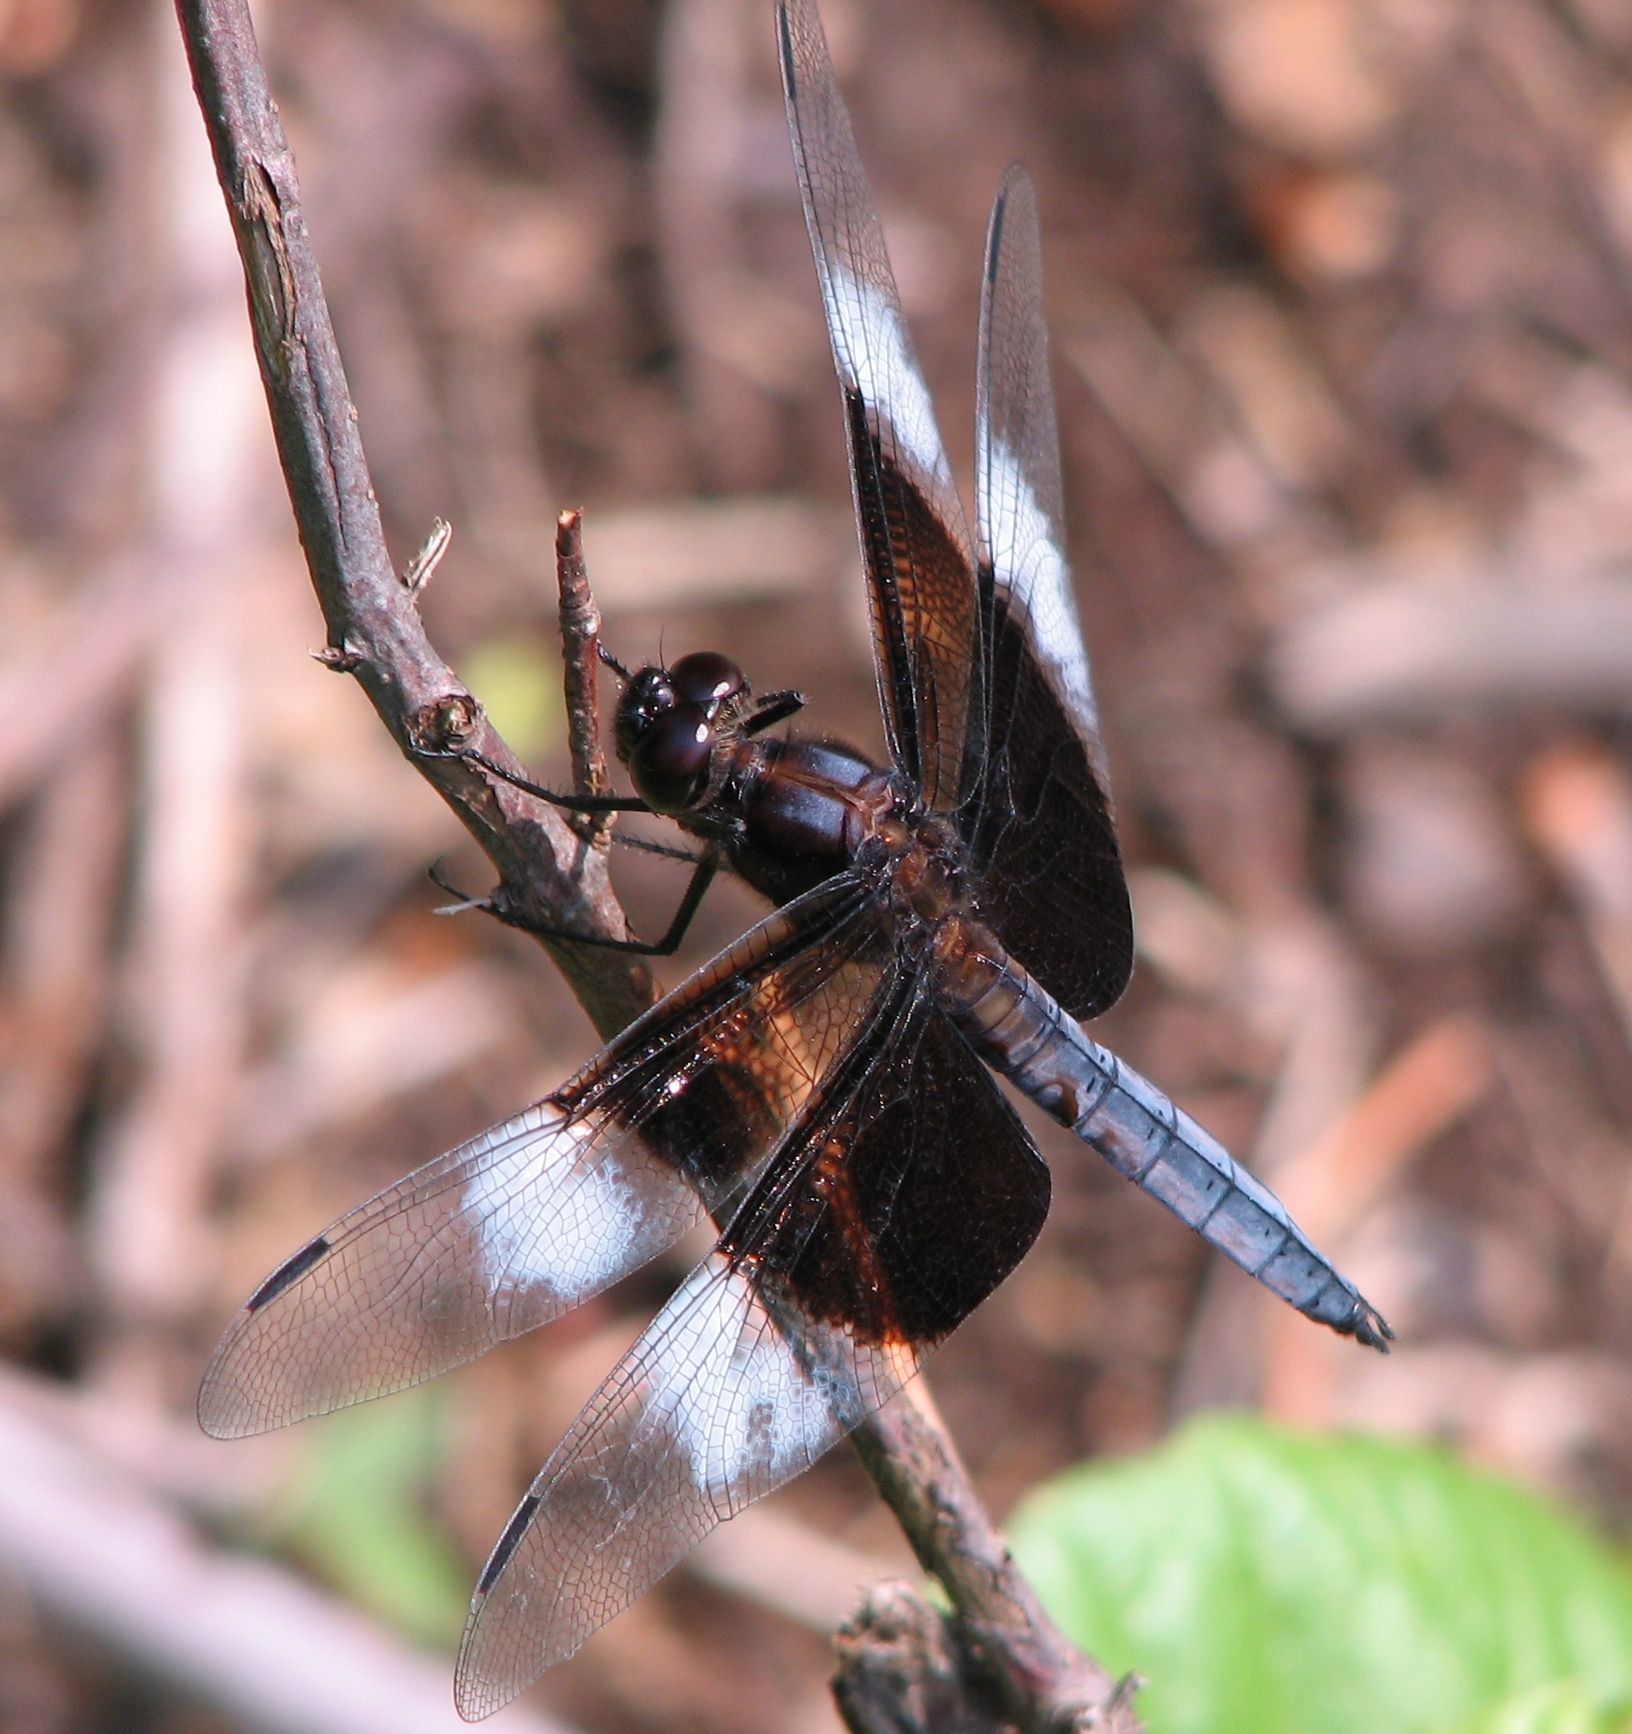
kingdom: Animalia
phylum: Arthropoda
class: Insecta
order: Odonata
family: Libellulidae
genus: Libellula
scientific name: Libellula luctuosa
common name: Widow skimmer
